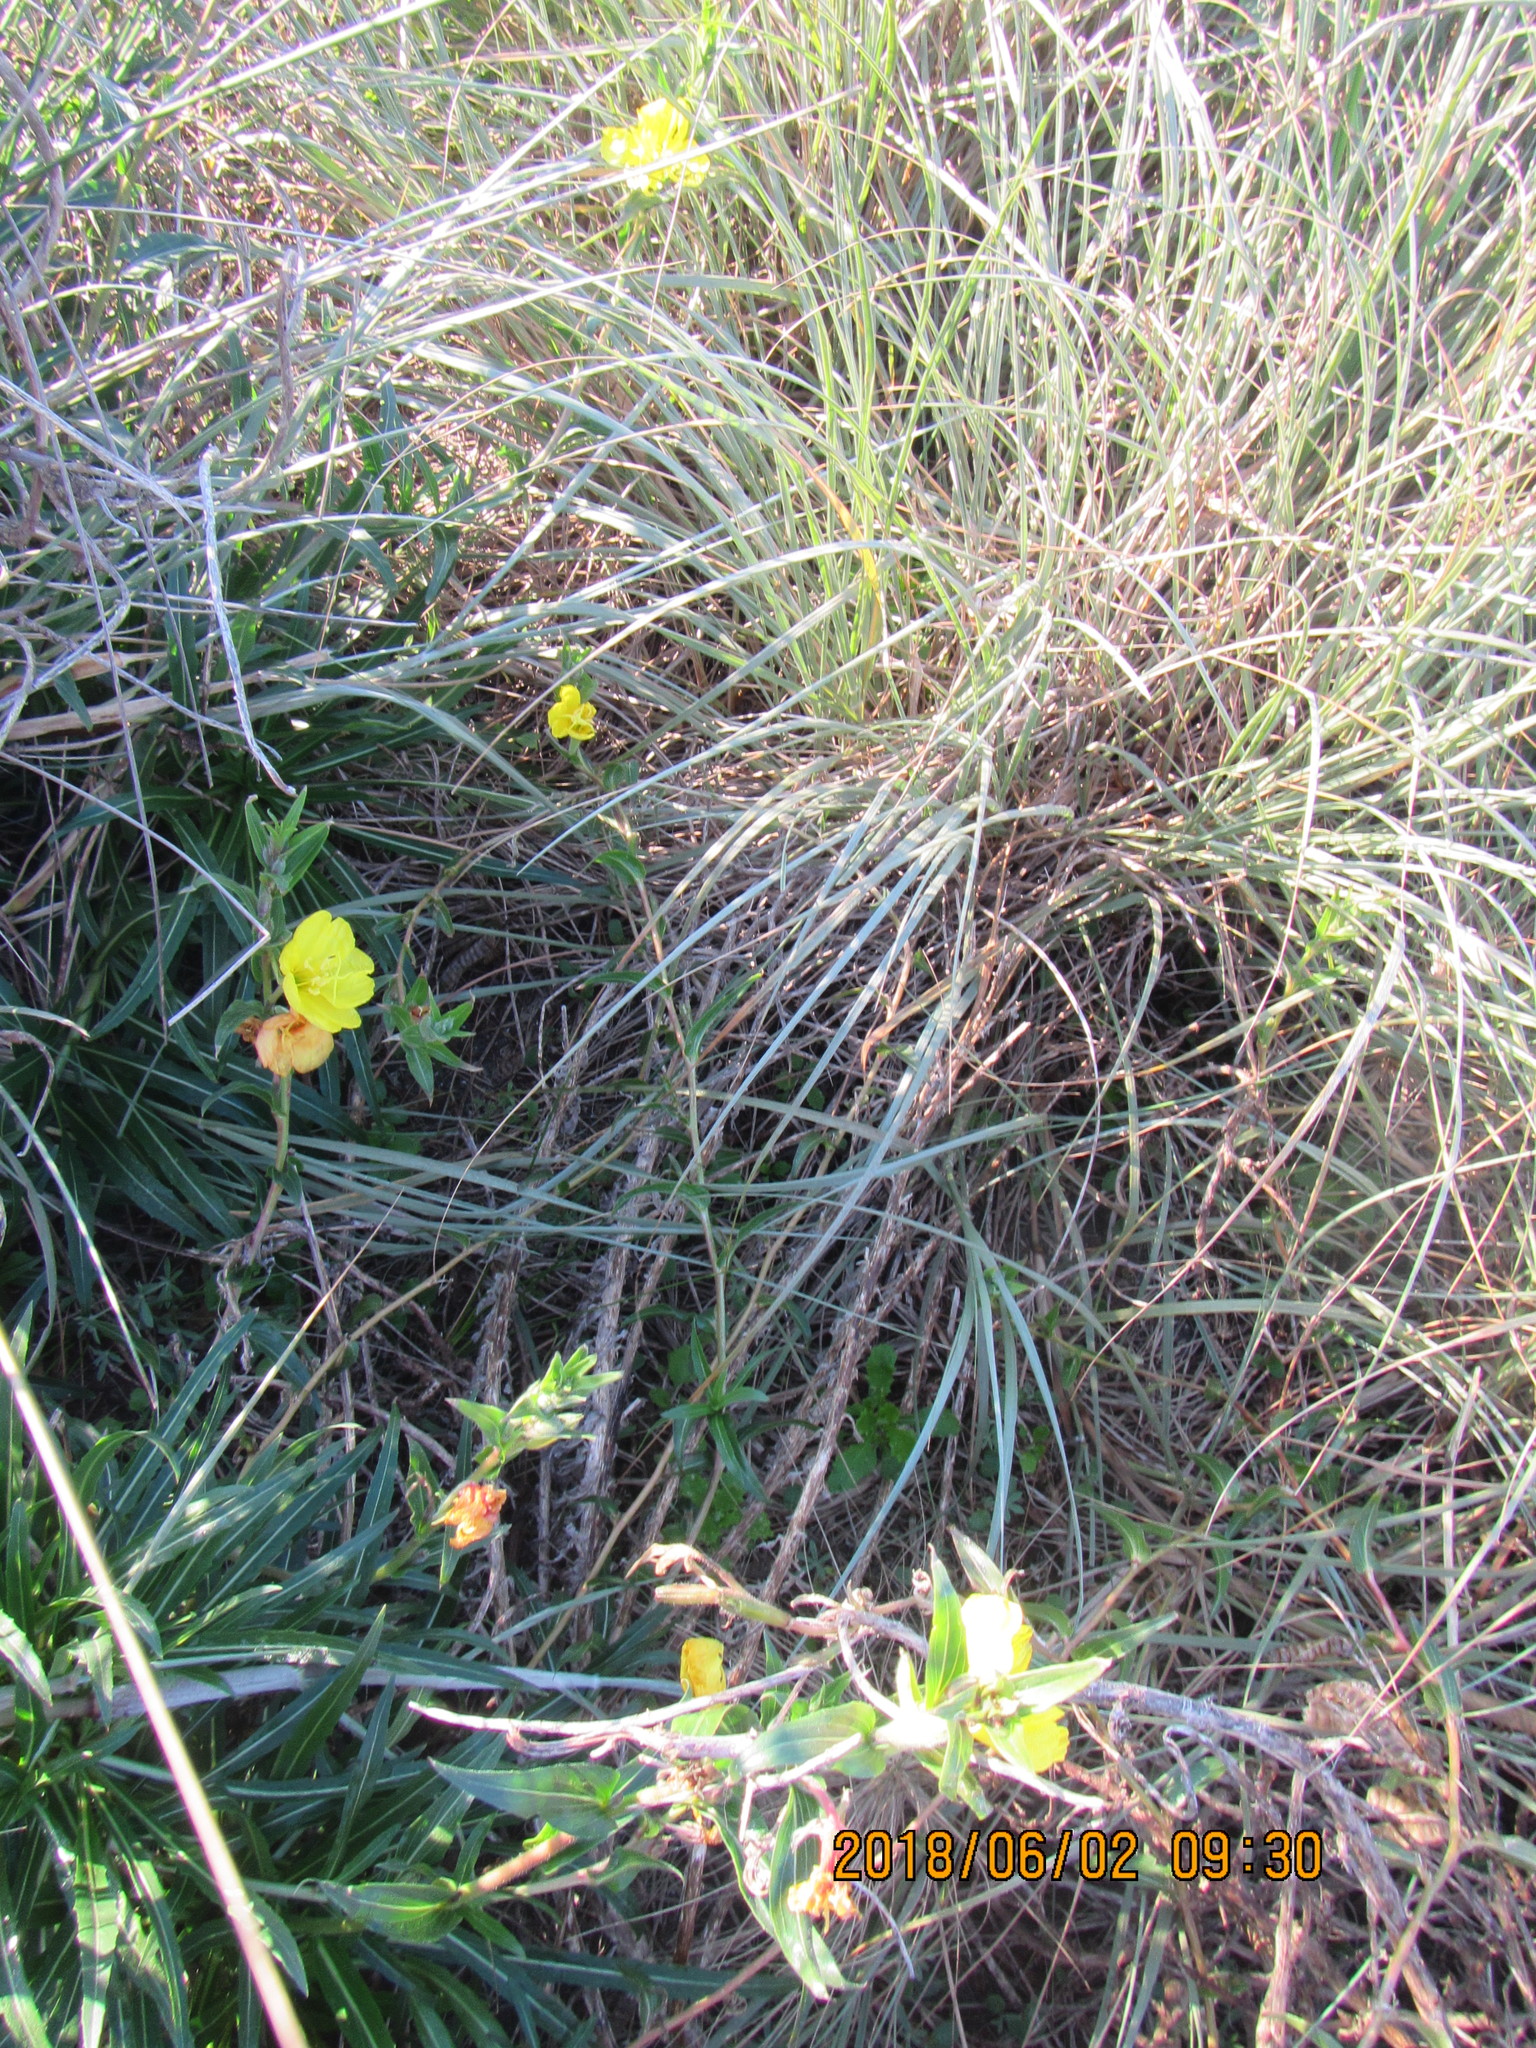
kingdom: Plantae
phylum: Tracheophyta
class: Magnoliopsida
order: Myrtales
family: Onagraceae
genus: Oenothera
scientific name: Oenothera drummondii
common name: Beach evening-primrose
